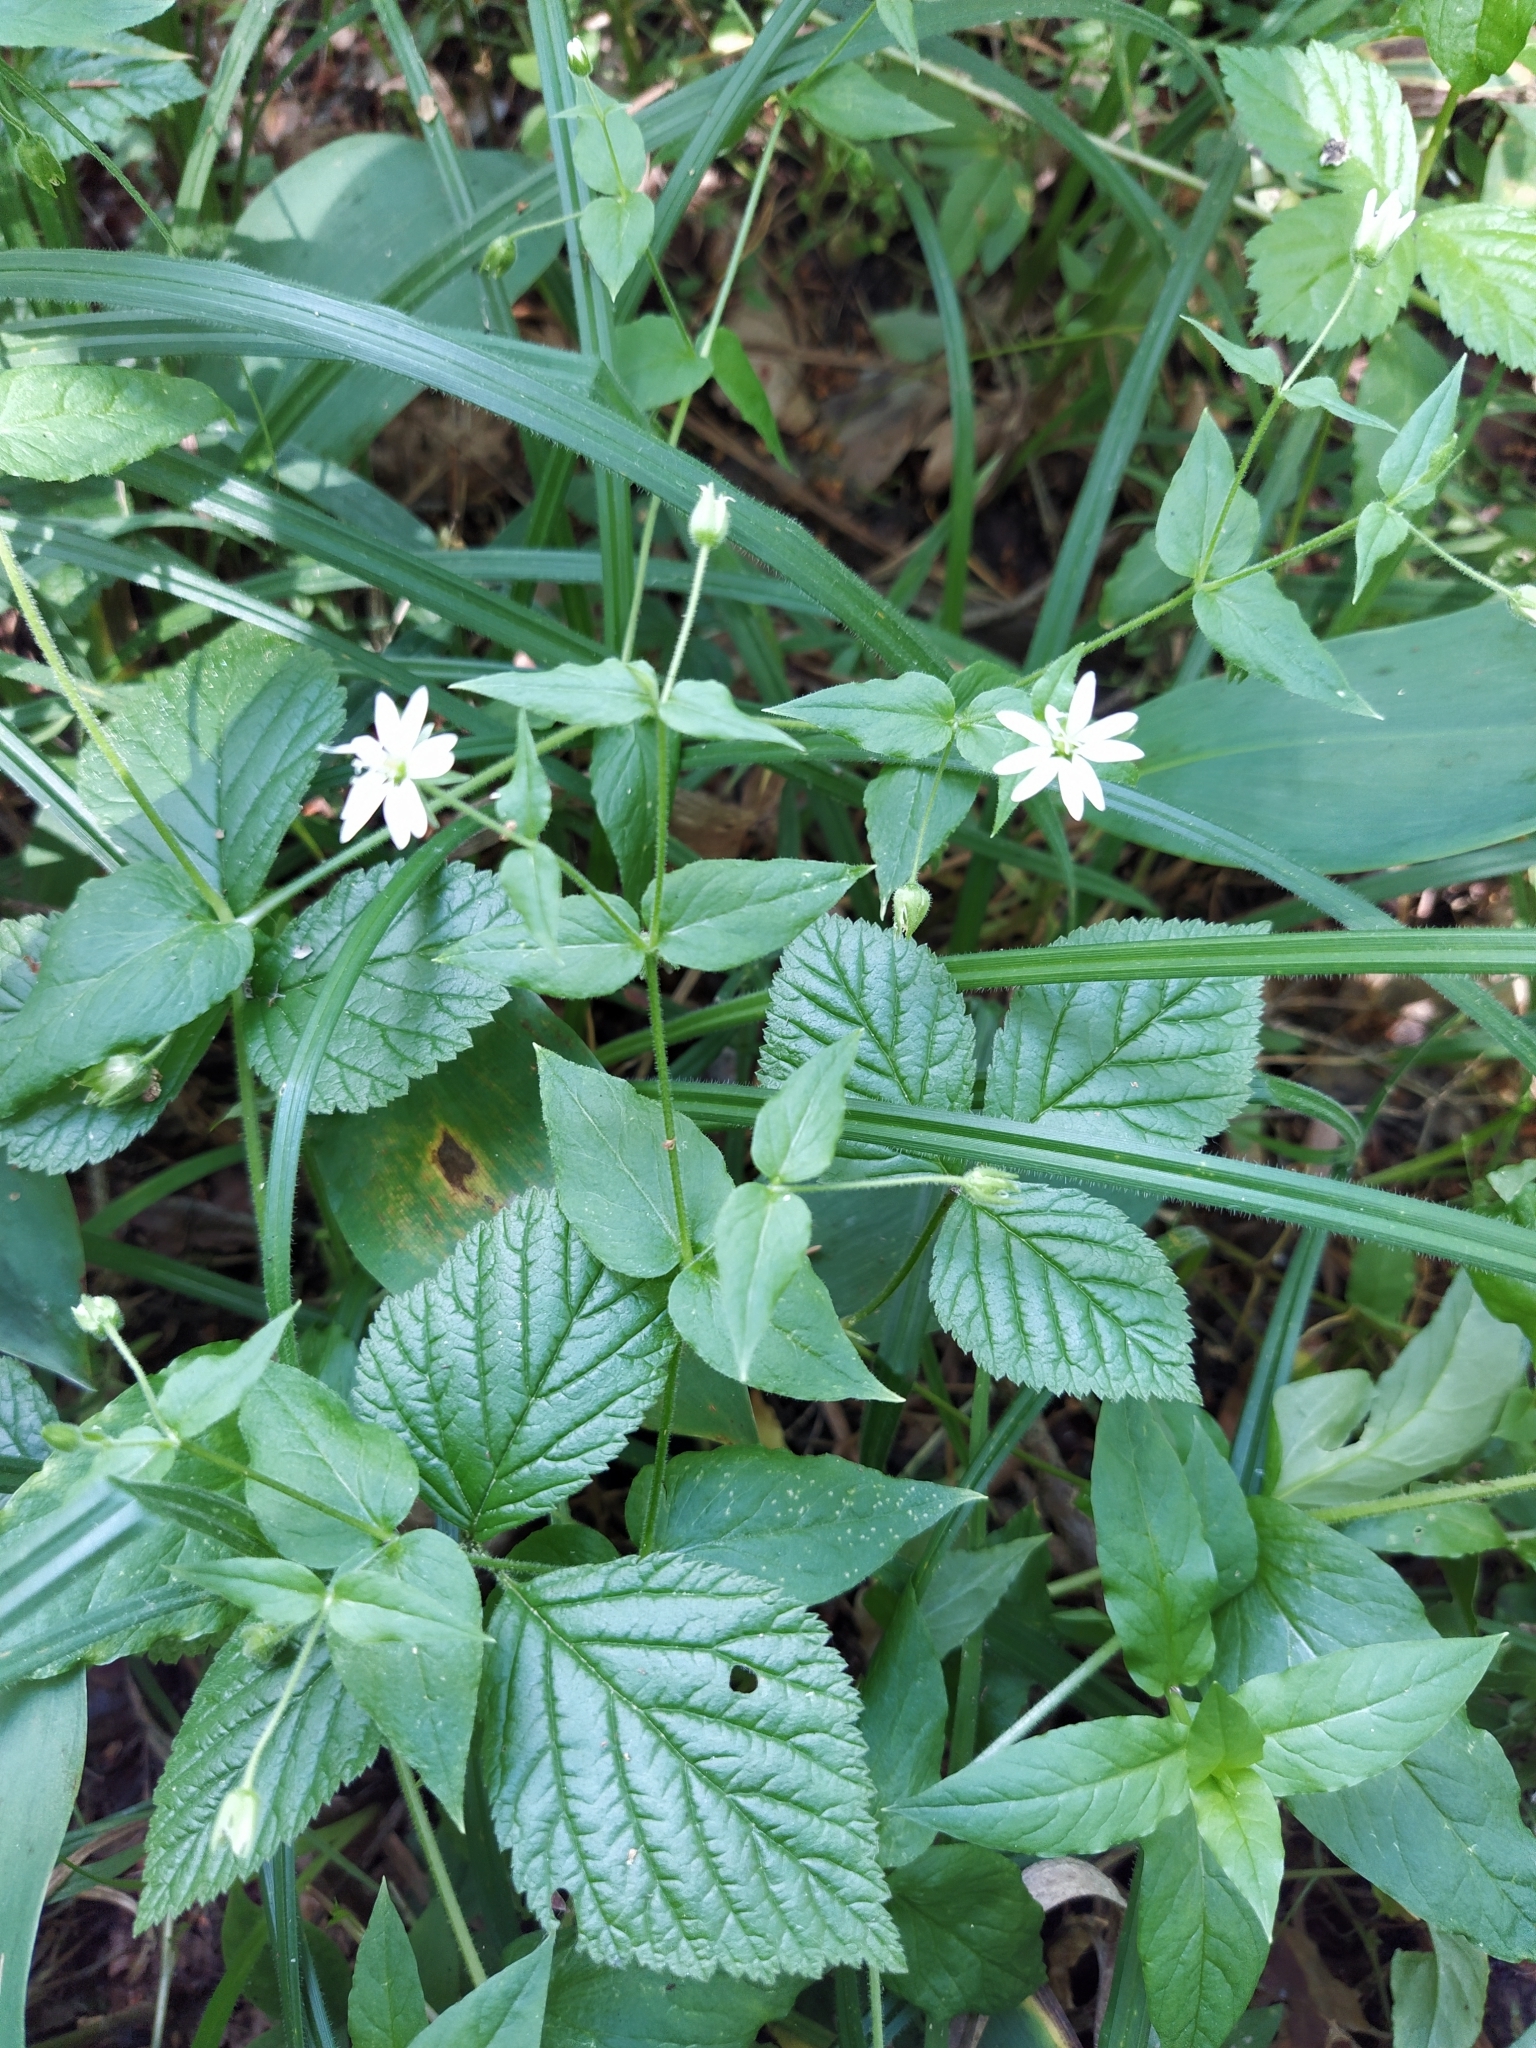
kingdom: Plantae
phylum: Tracheophyta
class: Magnoliopsida
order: Caryophyllales
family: Caryophyllaceae
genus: Stellaria
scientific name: Stellaria aquatica
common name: Water chickweed
